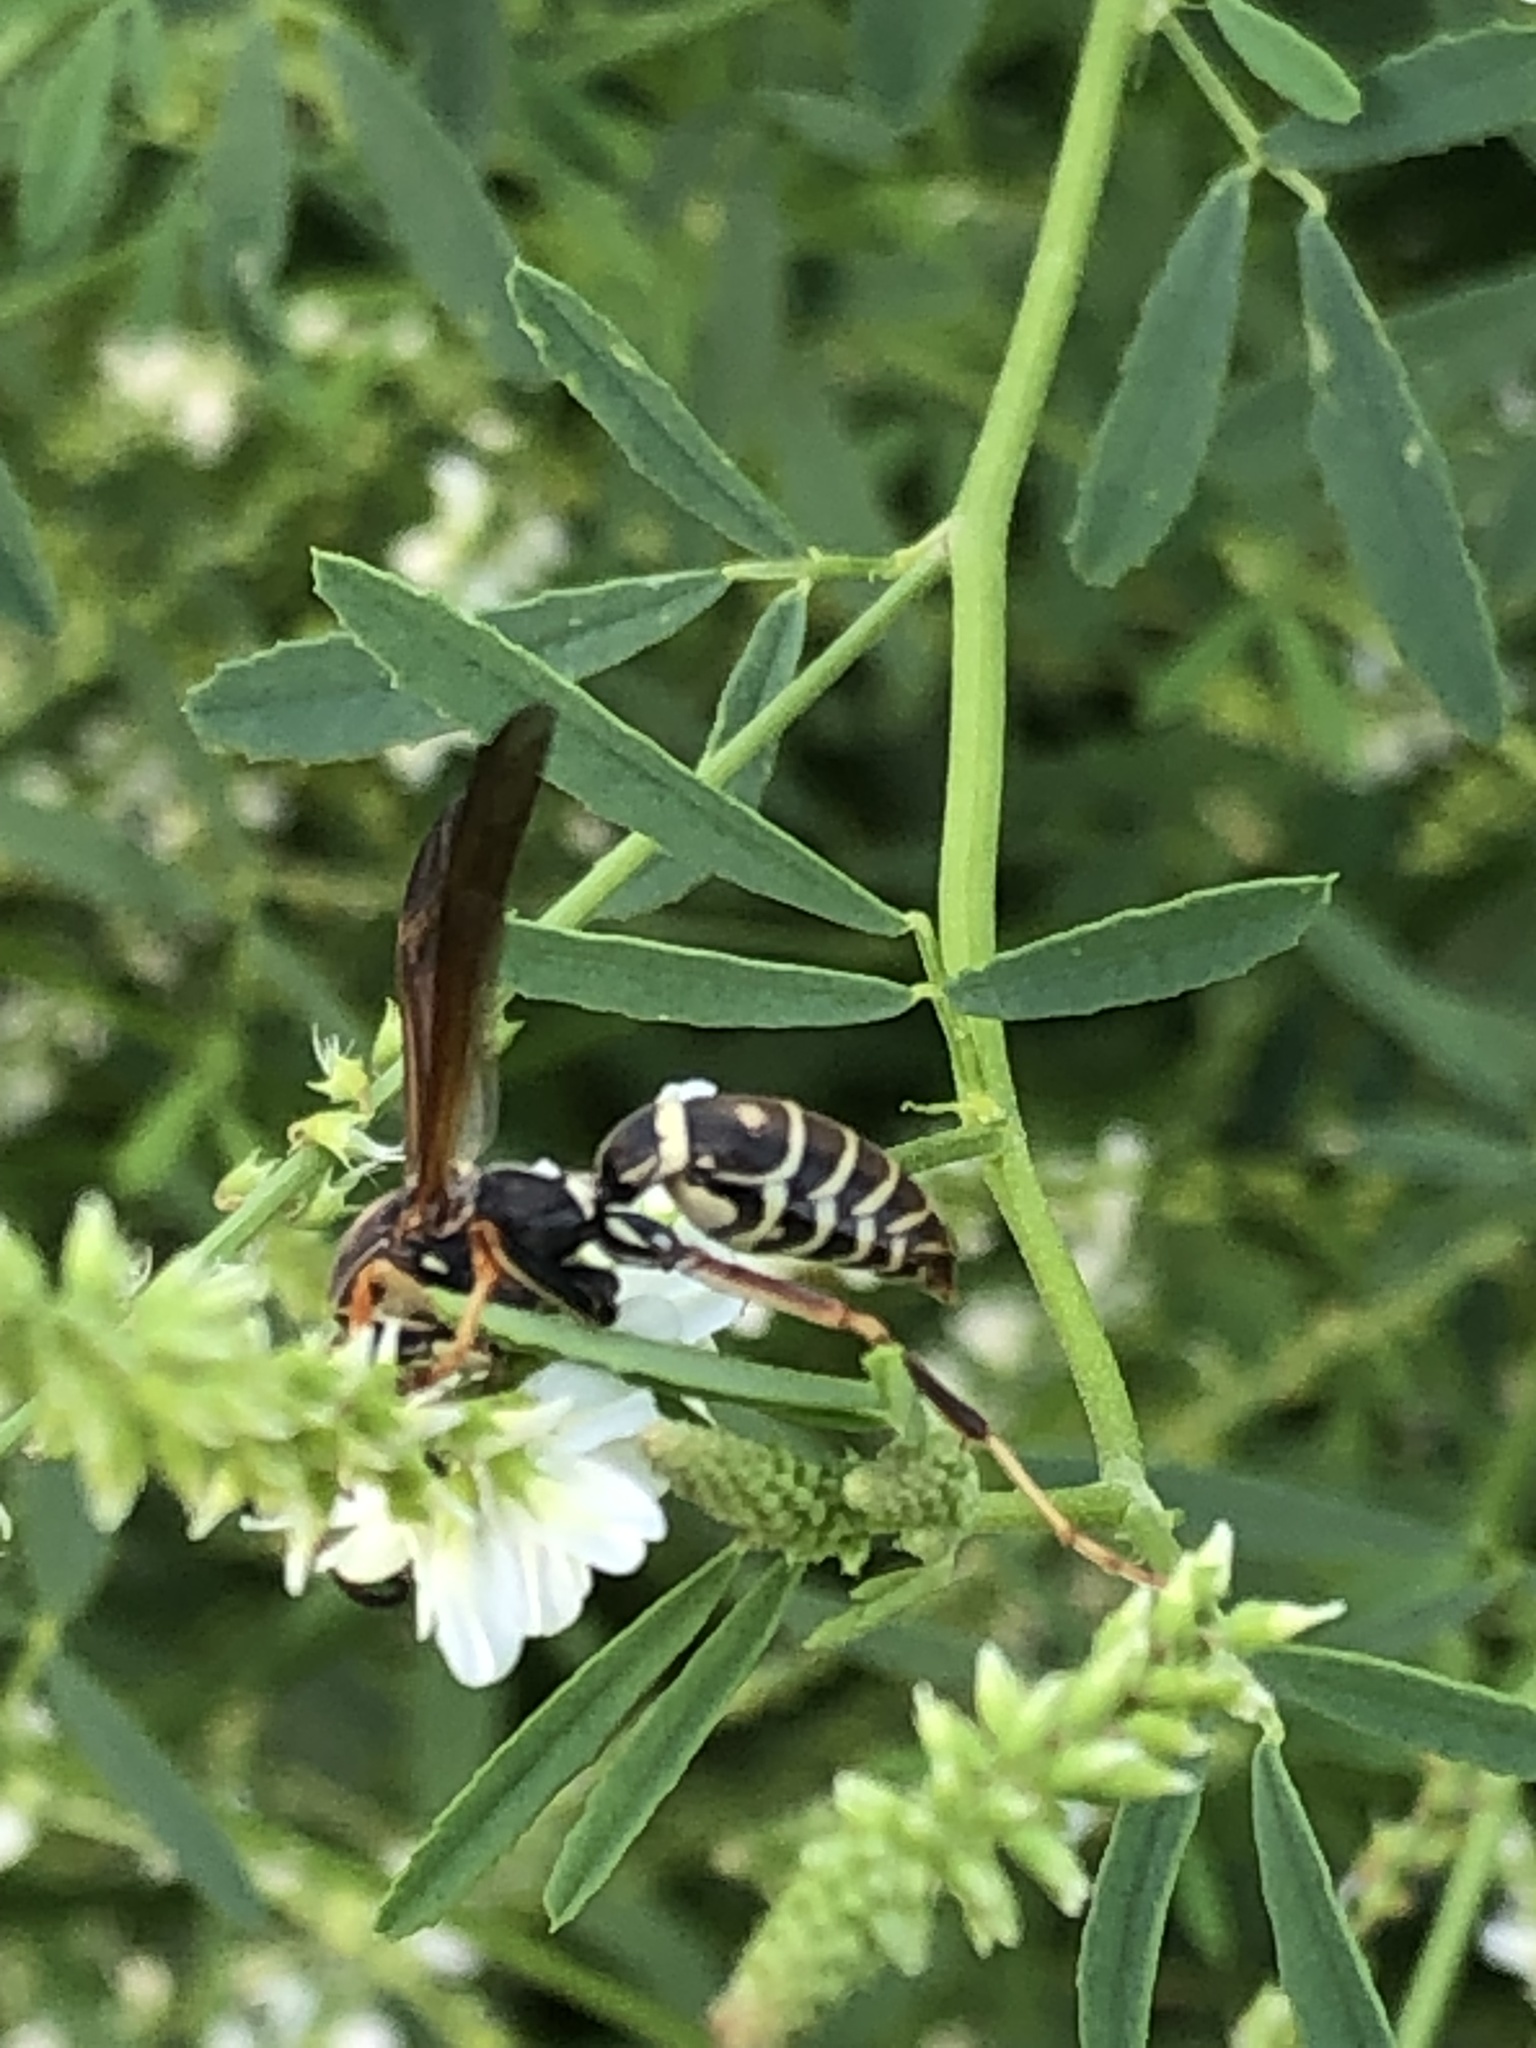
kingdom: Animalia
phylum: Arthropoda
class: Insecta
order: Hymenoptera
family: Eumenidae
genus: Polistes
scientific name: Polistes fuscatus
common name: Dark paper wasp
